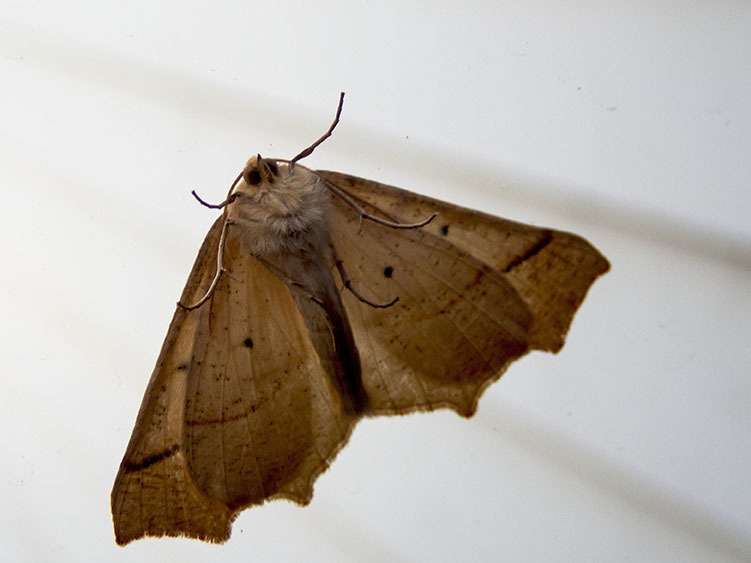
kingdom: Animalia
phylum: Arthropoda
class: Insecta
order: Lepidoptera
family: Geometridae
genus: Synaxis
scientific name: Synaxis jubararia
